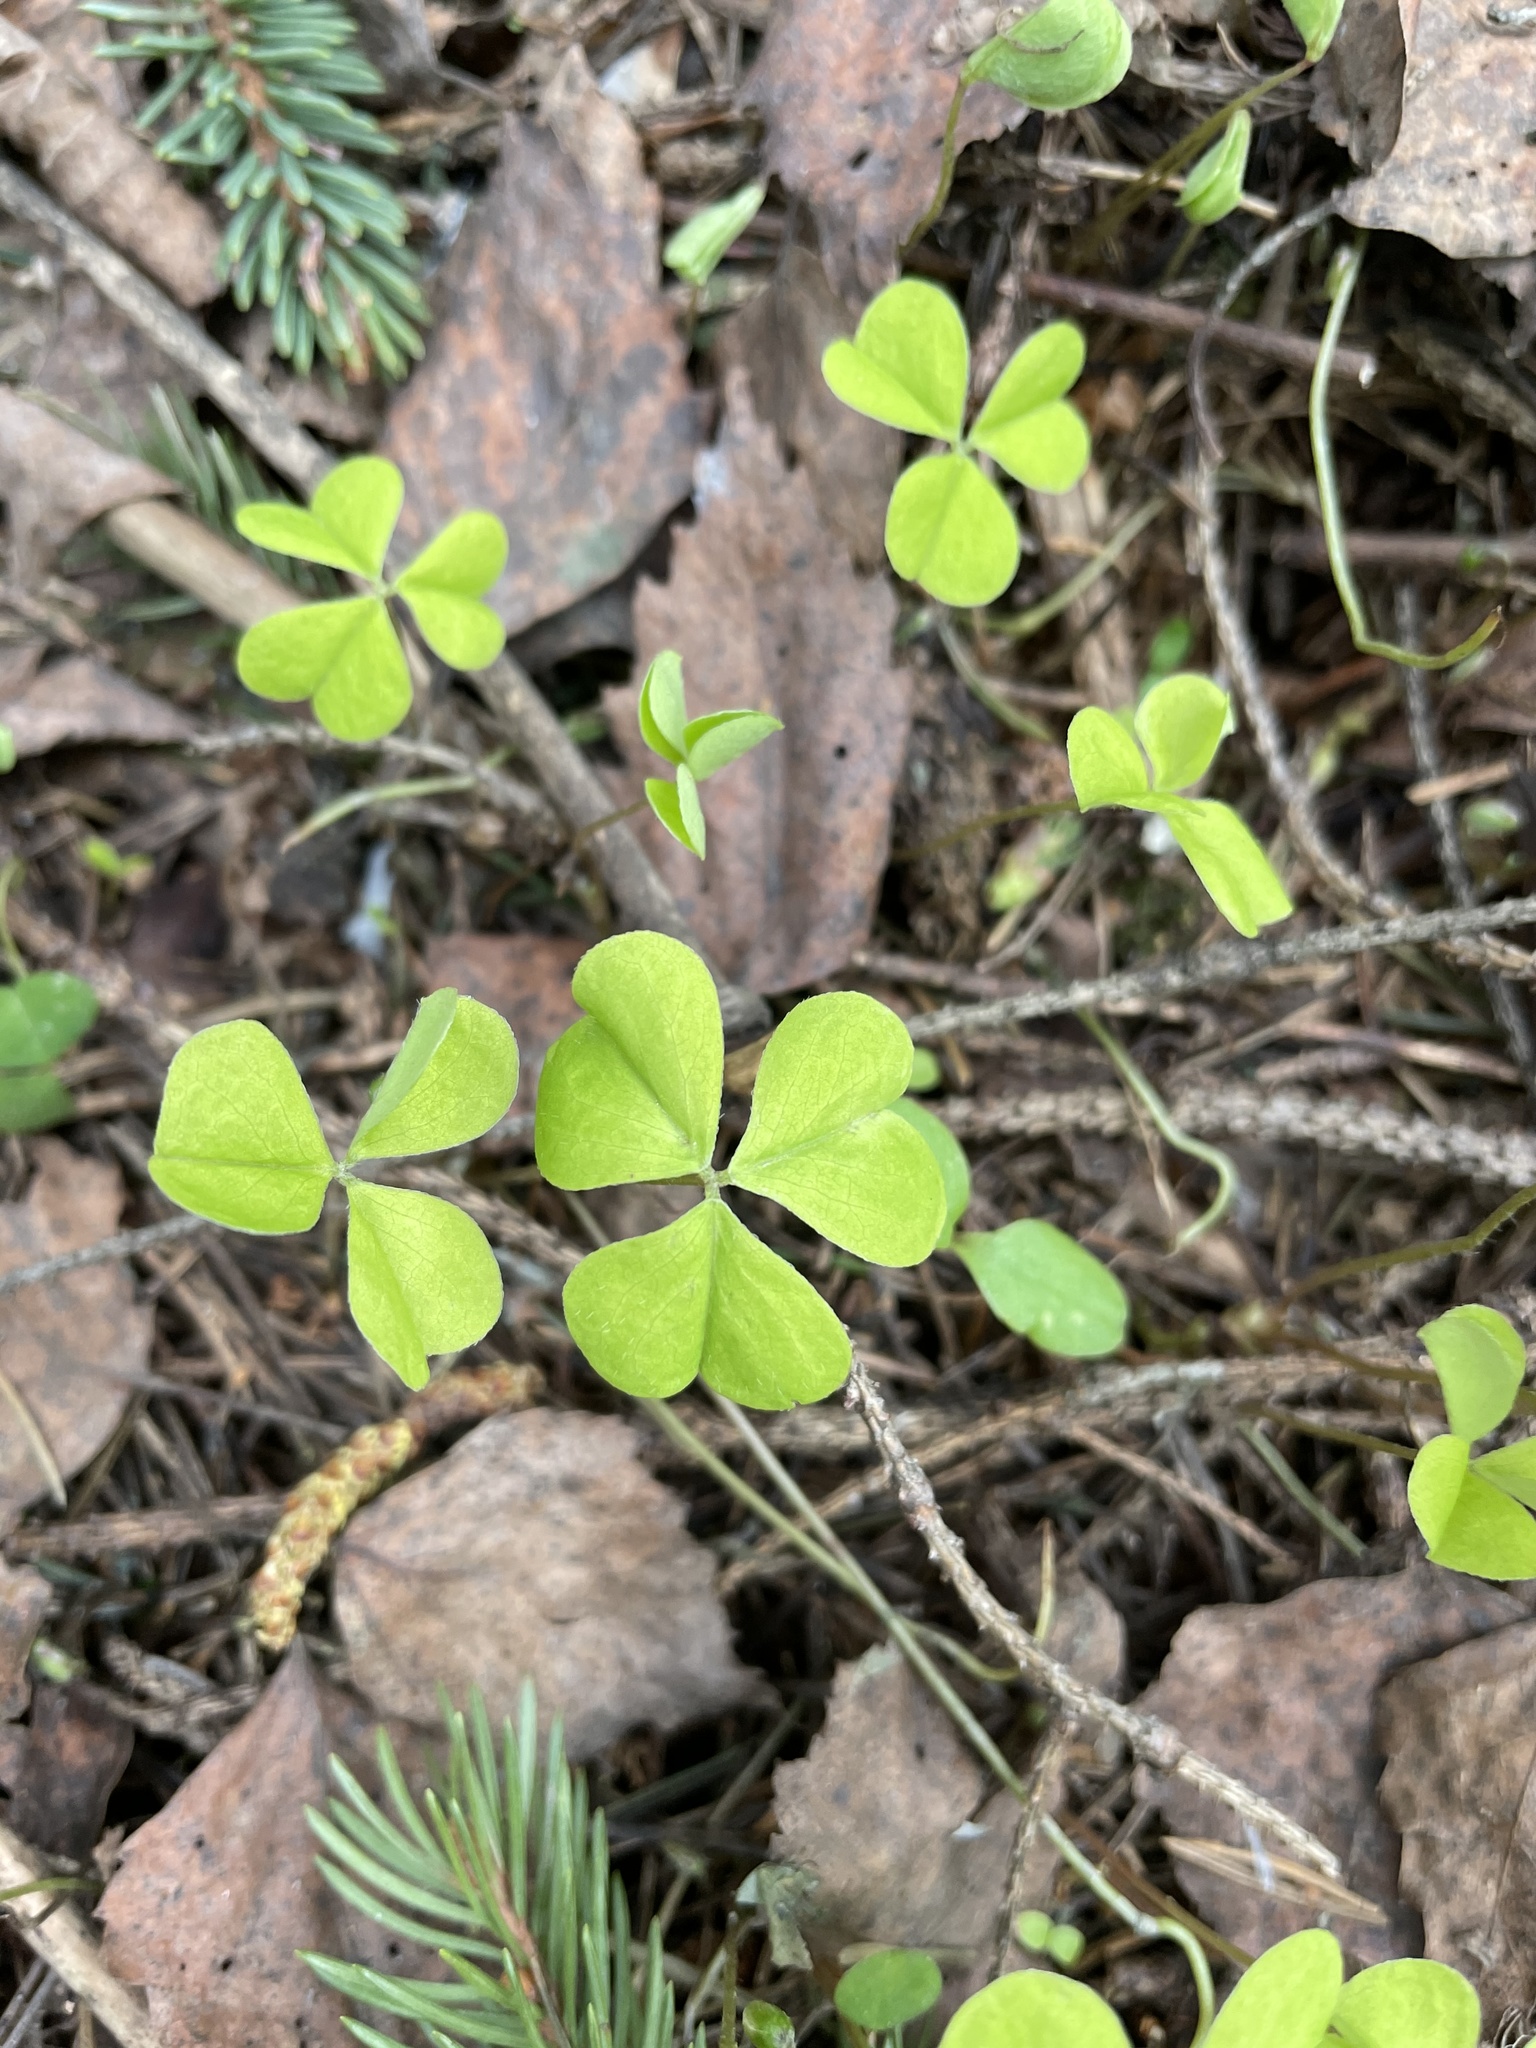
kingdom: Plantae
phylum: Tracheophyta
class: Magnoliopsida
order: Oxalidales
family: Oxalidaceae
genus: Oxalis
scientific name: Oxalis acetosella
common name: Wood-sorrel
